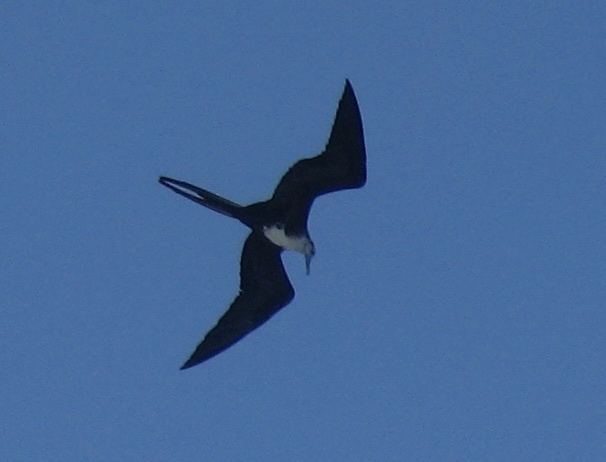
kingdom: Animalia
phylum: Chordata
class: Aves
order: Suliformes
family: Fregatidae
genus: Fregata
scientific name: Fregata minor
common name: Great frigatebird
